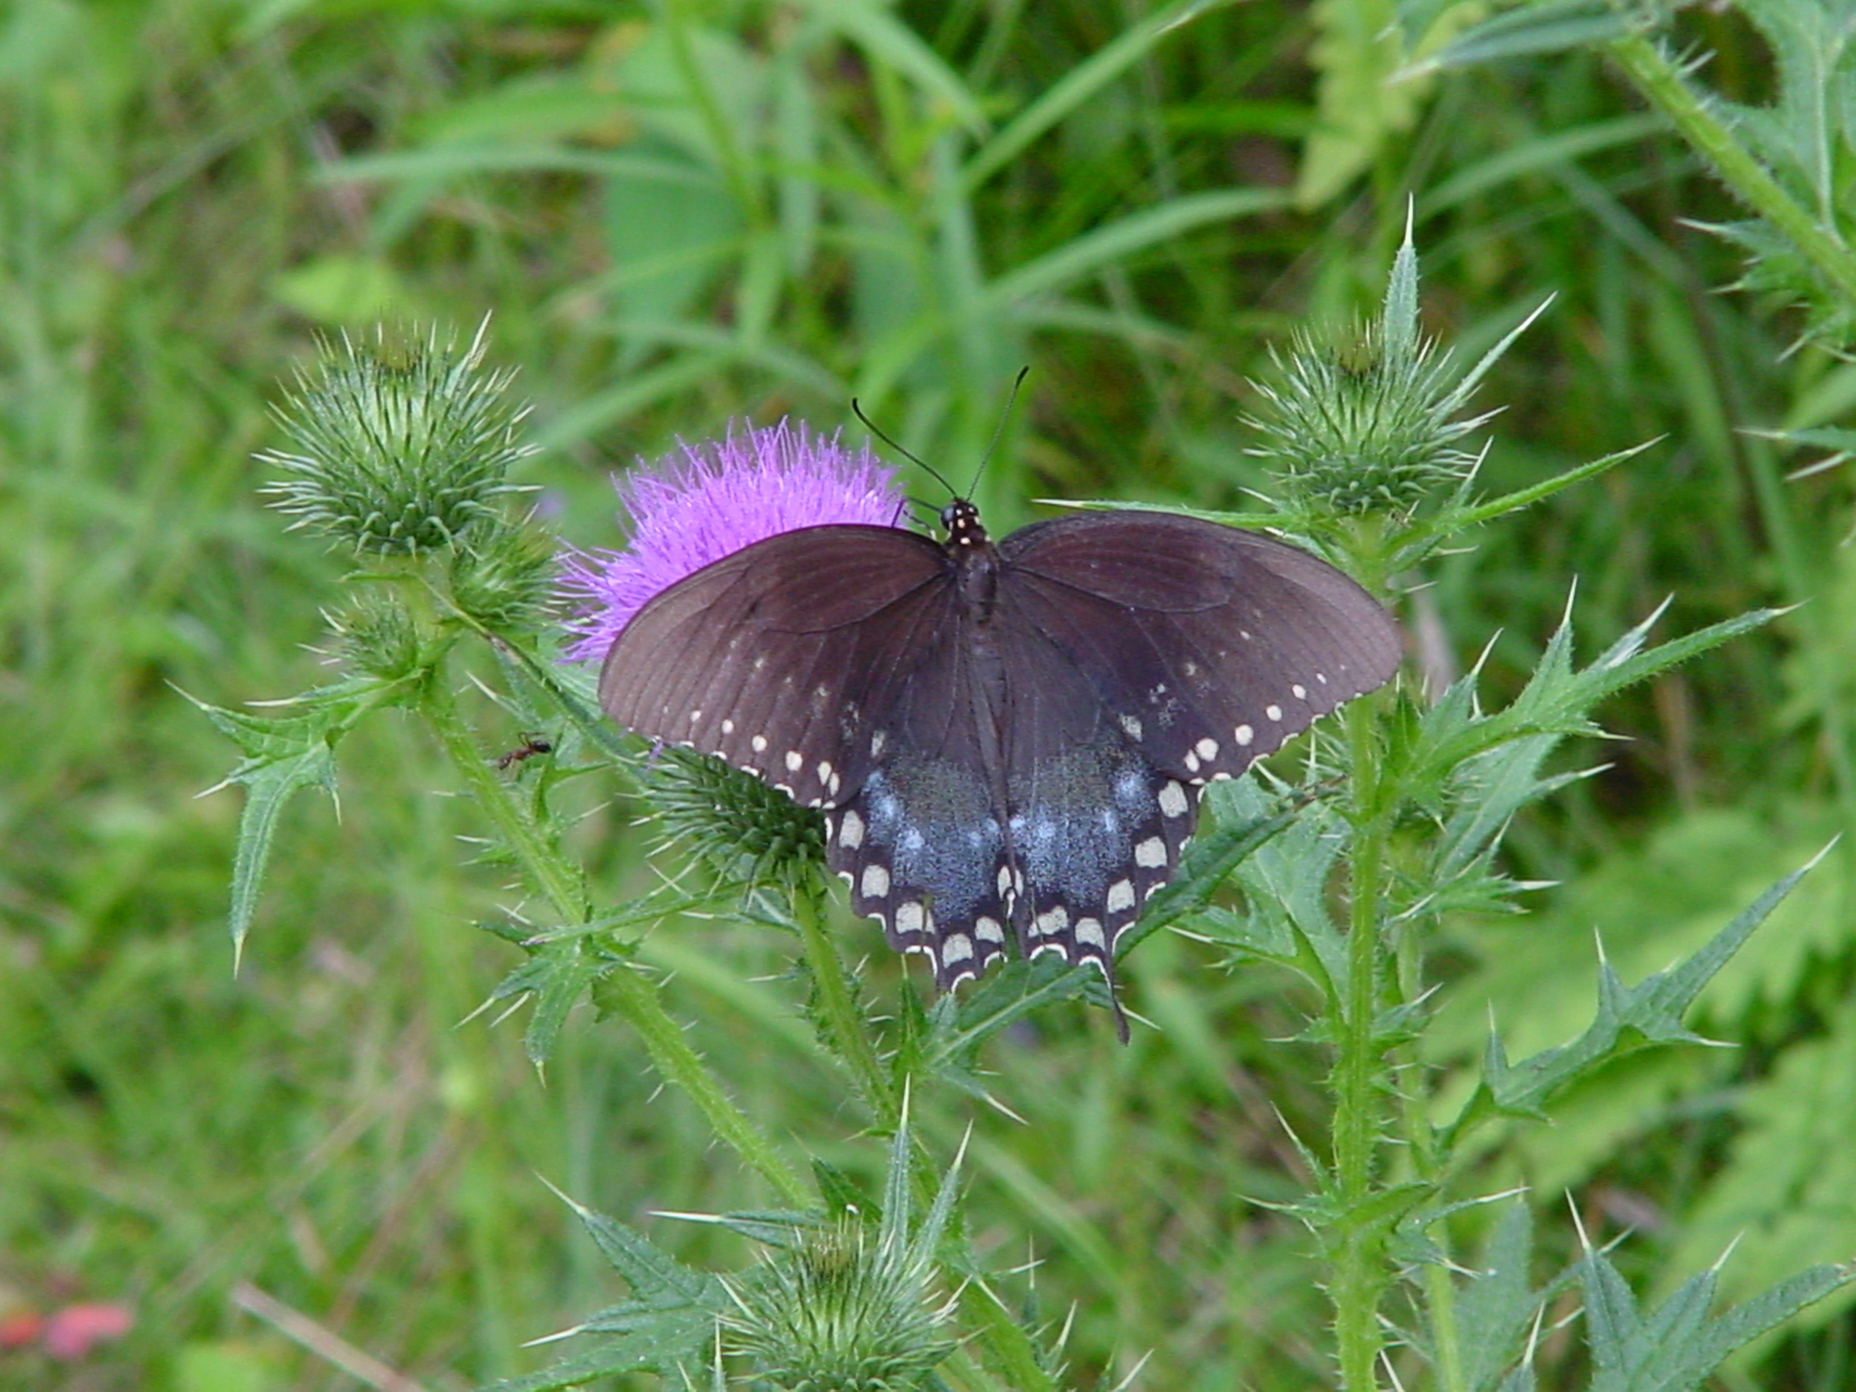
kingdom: Animalia
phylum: Arthropoda
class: Insecta
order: Lepidoptera
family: Papilionidae
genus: Papilio
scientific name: Papilio troilus
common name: Spicebush swallowtail
